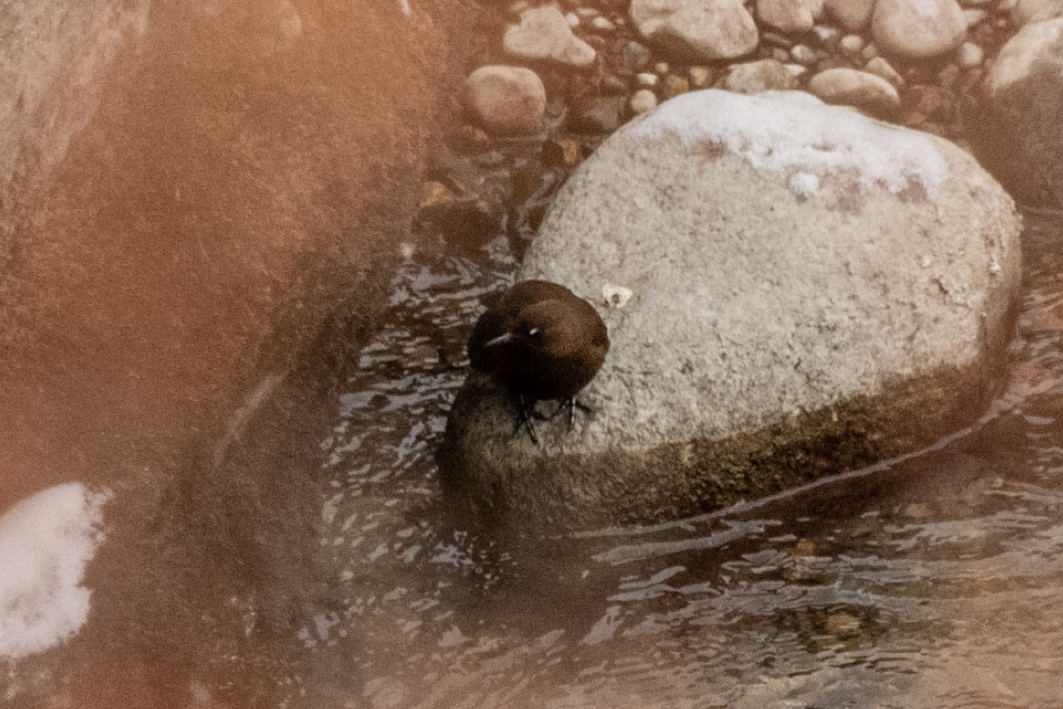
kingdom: Animalia
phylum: Chordata
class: Aves
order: Passeriformes
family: Cinclidae
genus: Cinclus
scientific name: Cinclus pallasii
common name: Brown dipper
